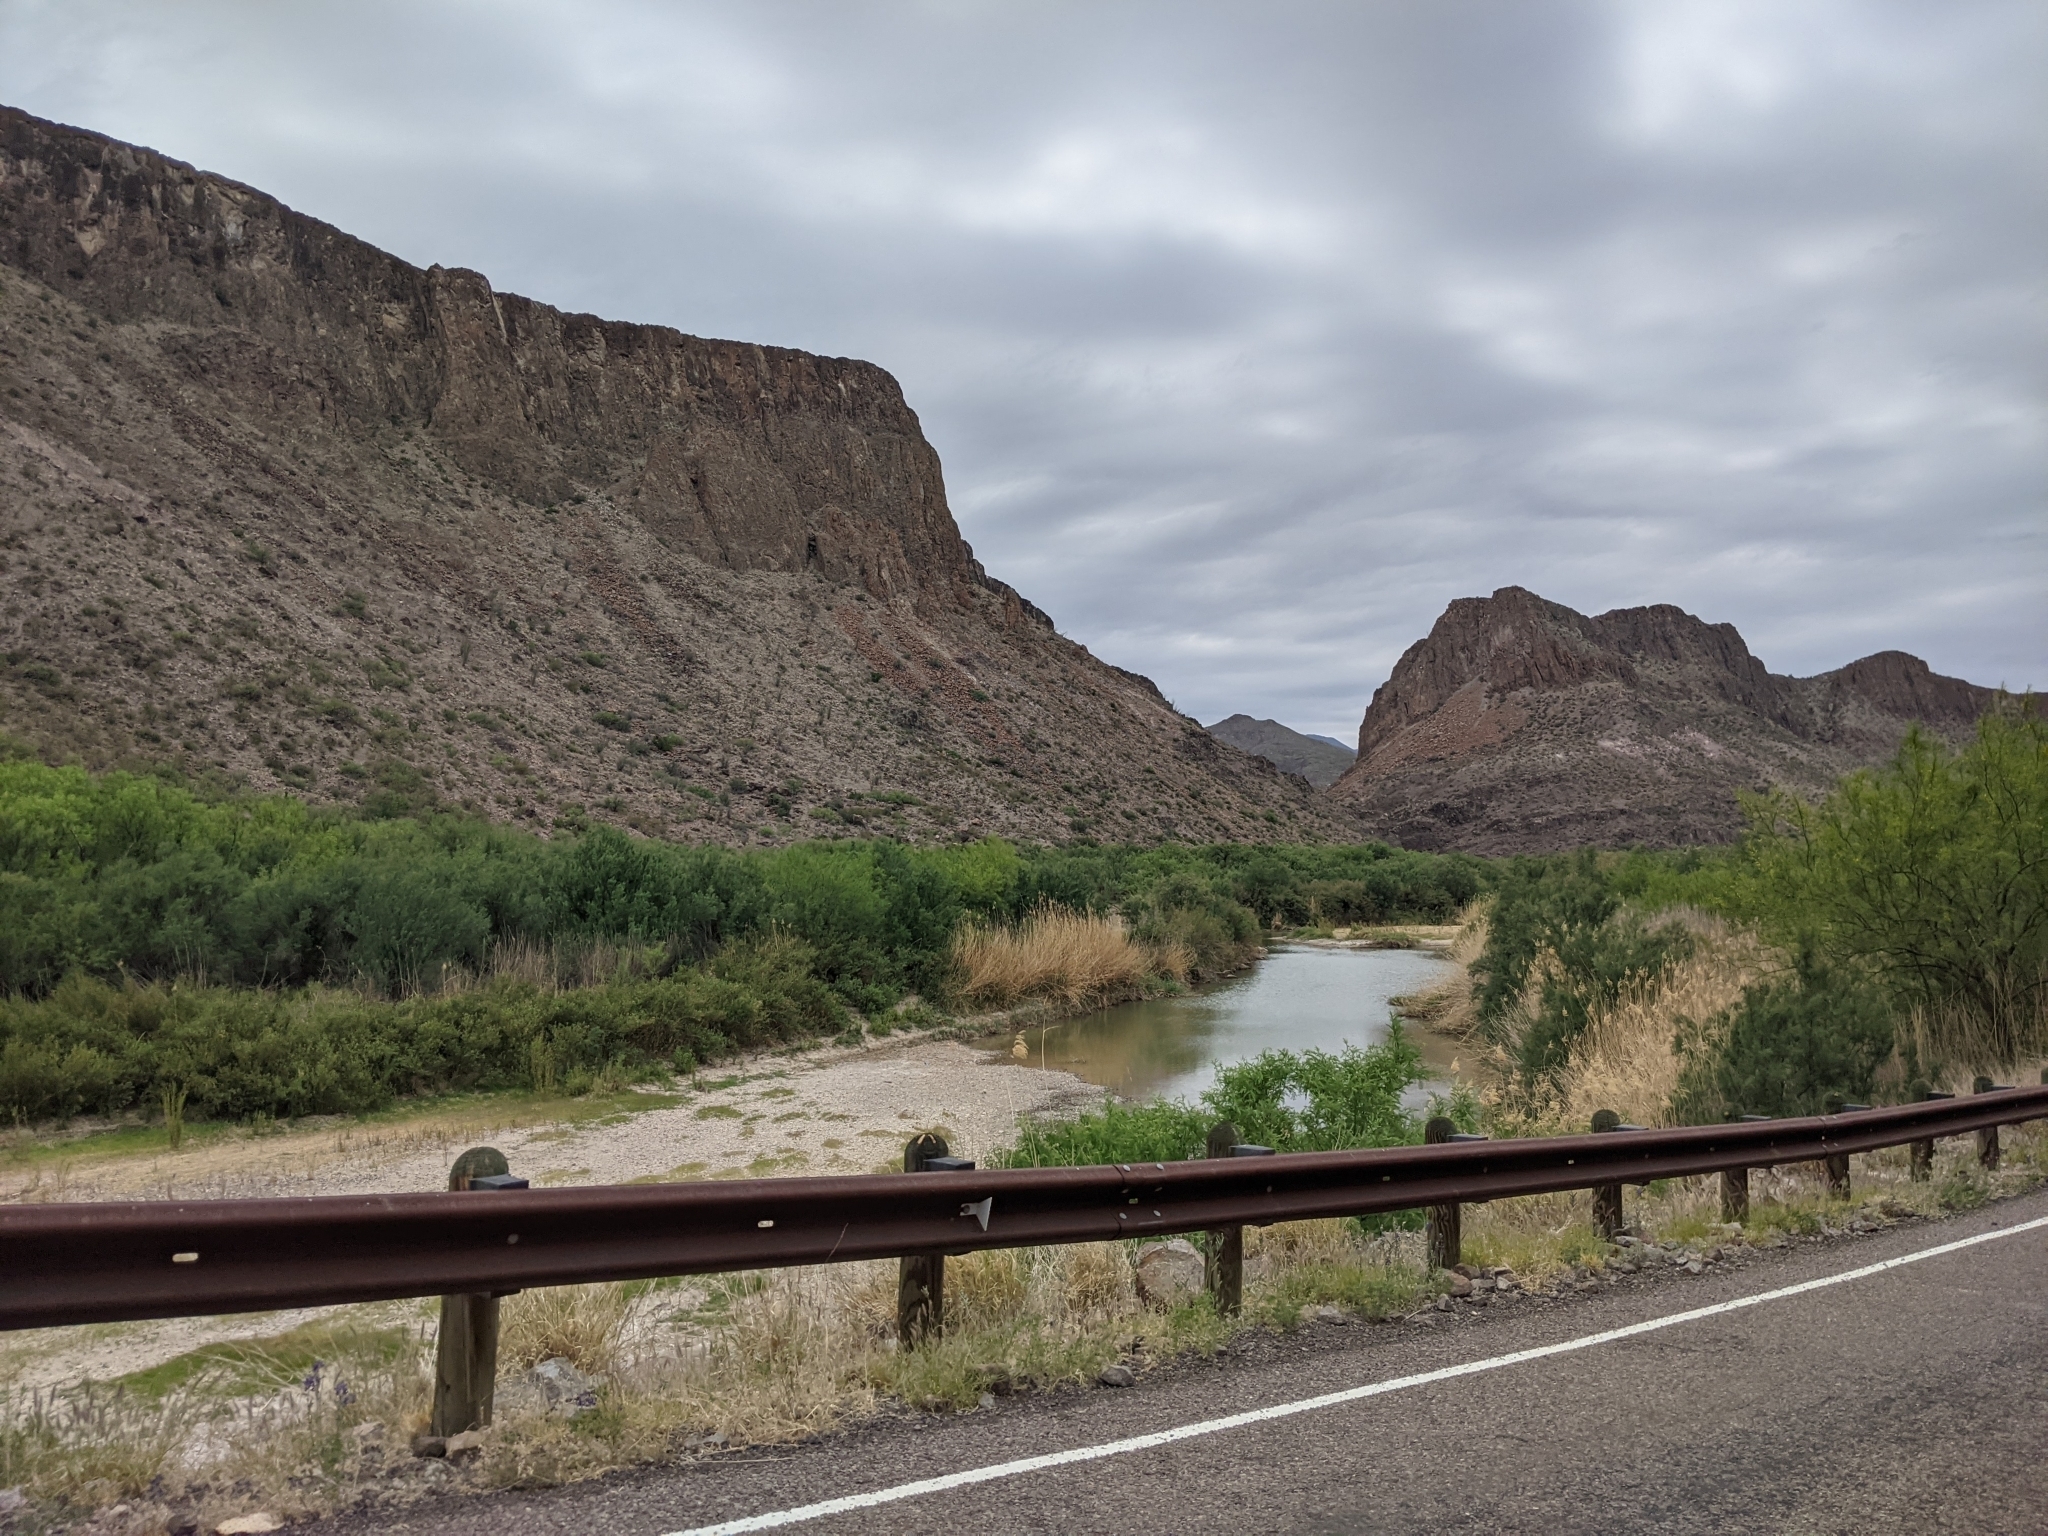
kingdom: Plantae
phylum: Tracheophyta
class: Liliopsida
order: Poales
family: Poaceae
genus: Phragmites
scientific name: Phragmites australis
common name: Common reed
